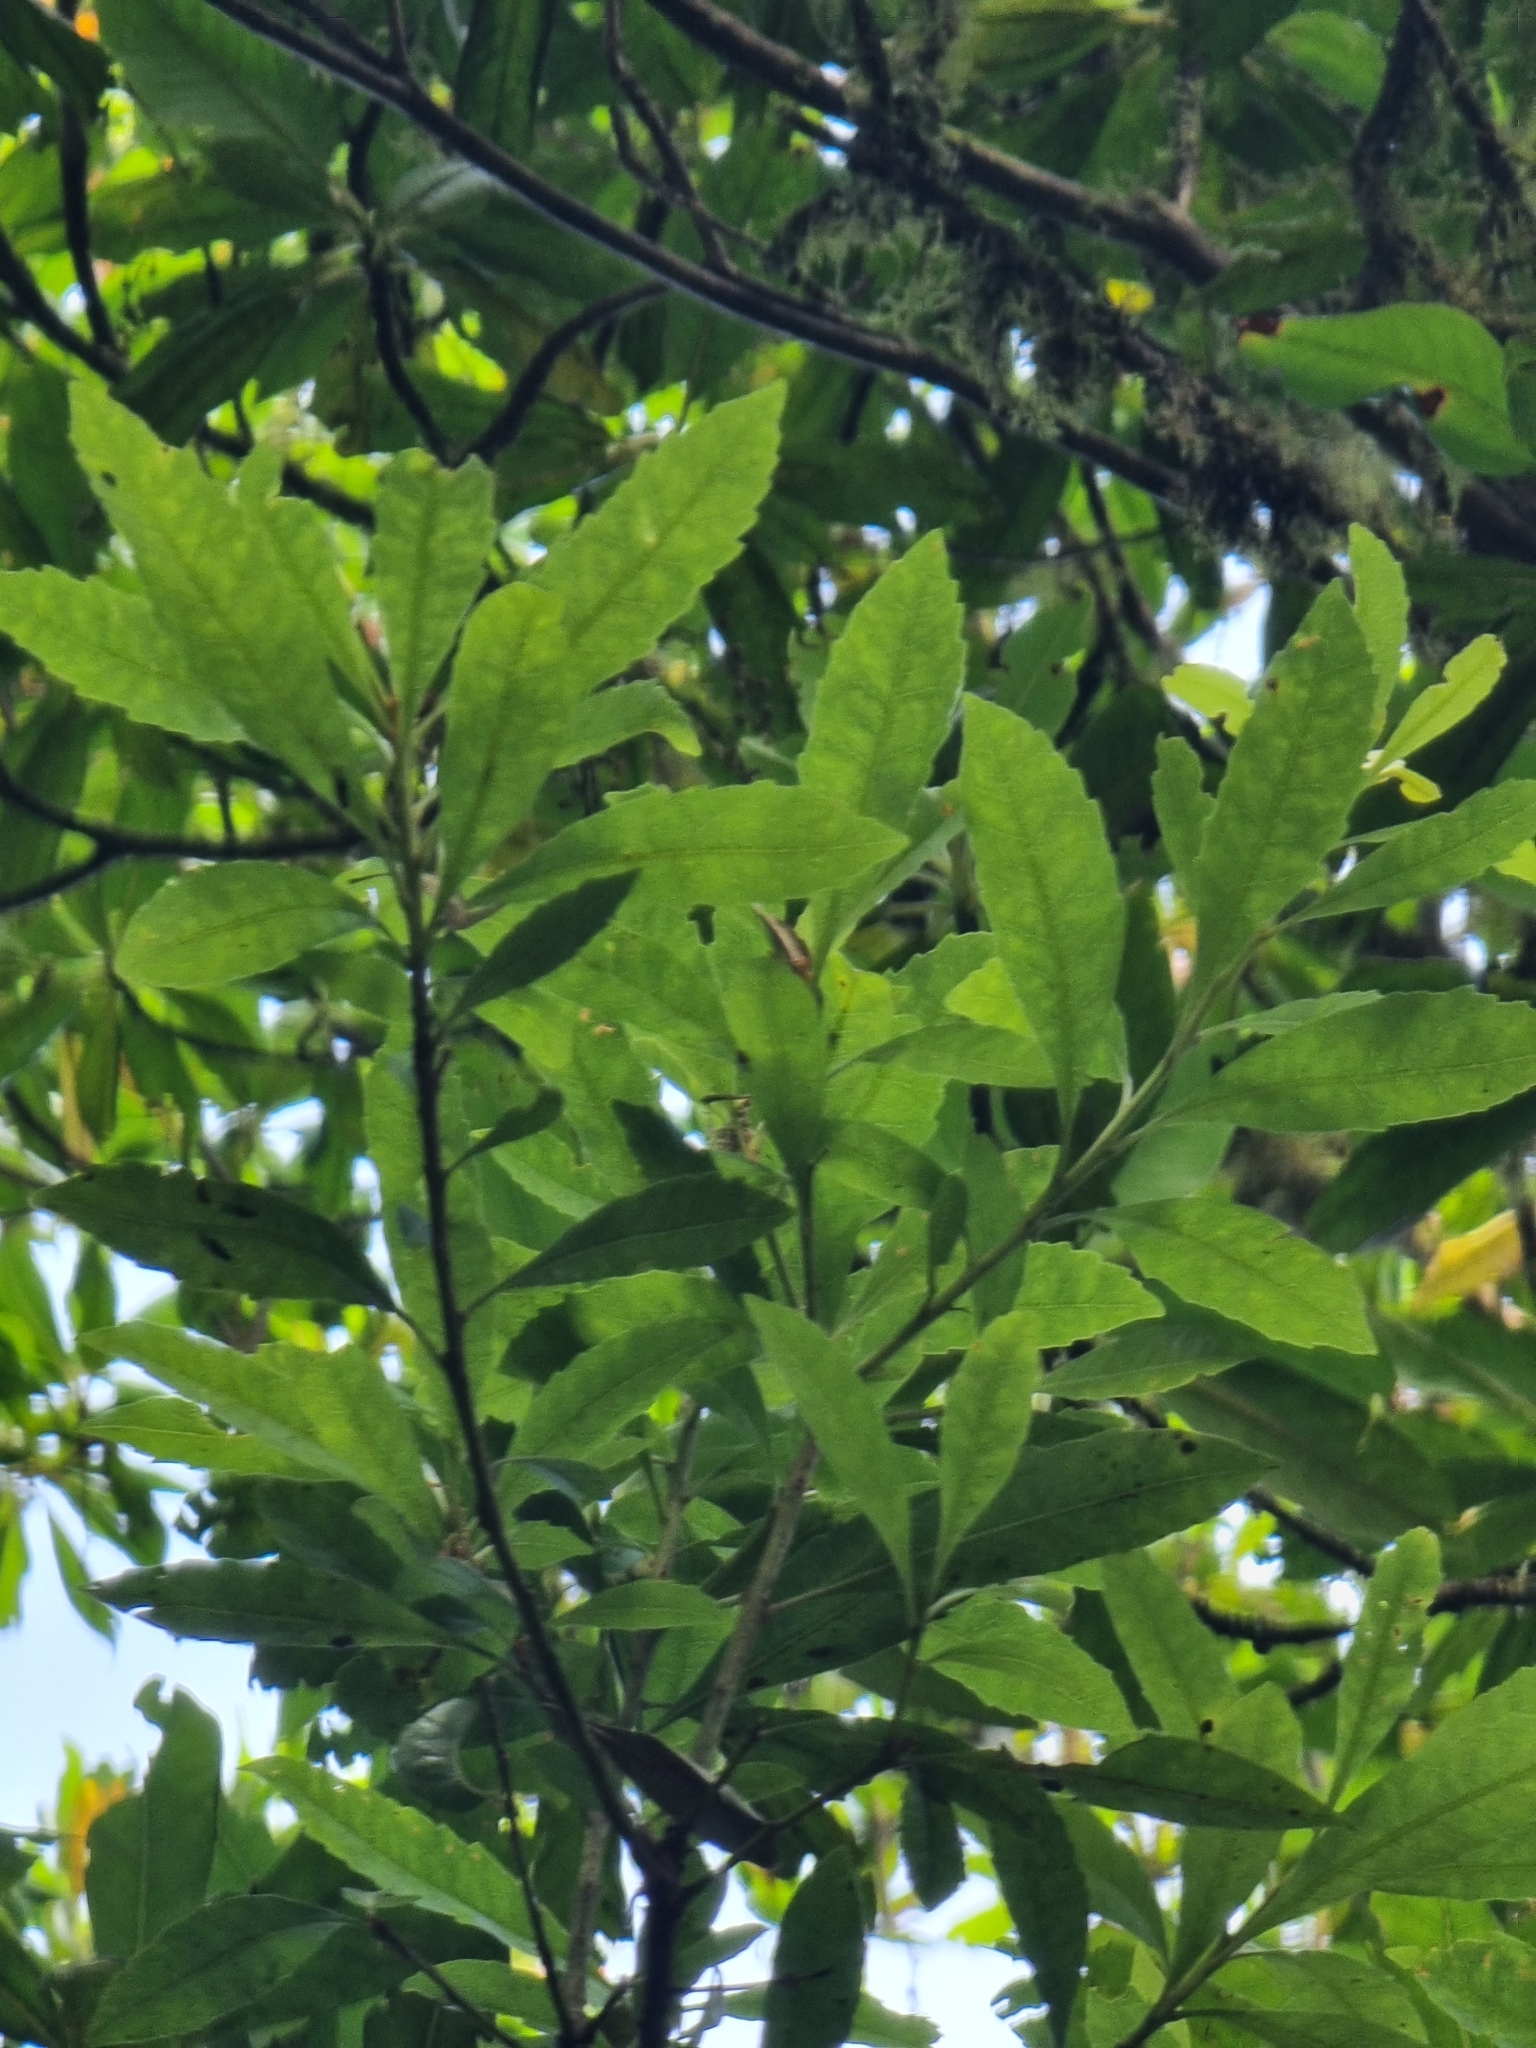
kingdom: Plantae
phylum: Tracheophyta
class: Magnoliopsida
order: Fagales
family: Myricaceae
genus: Morella
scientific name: Morella faya
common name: Firetree
